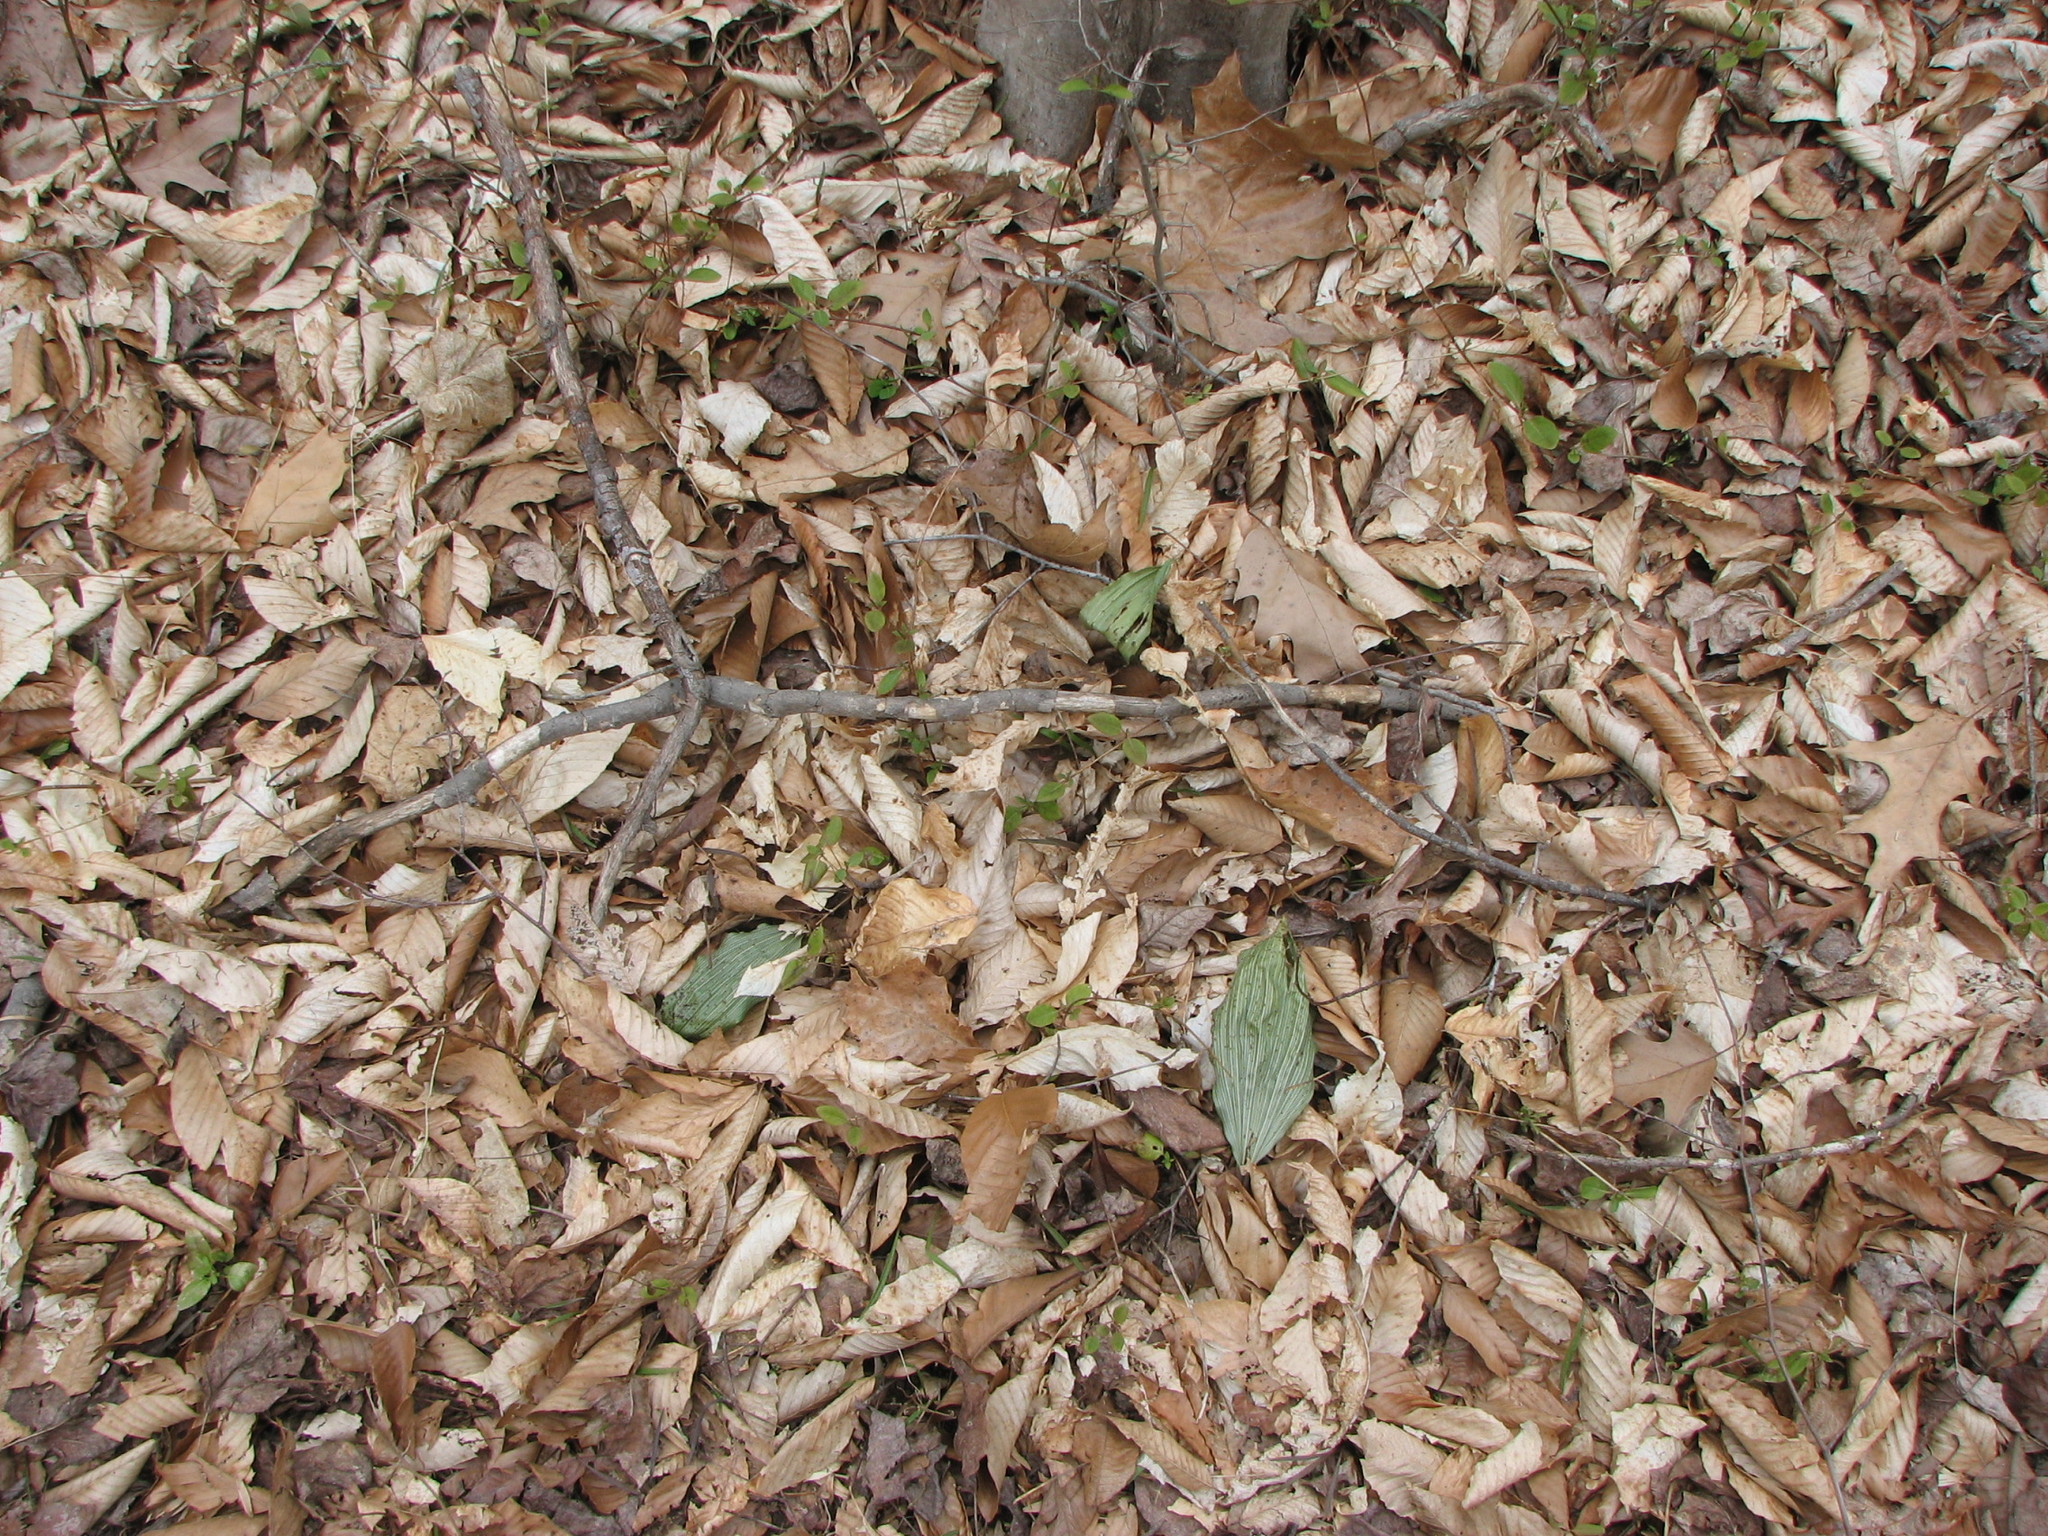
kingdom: Plantae
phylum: Tracheophyta
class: Liliopsida
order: Asparagales
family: Orchidaceae
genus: Aplectrum
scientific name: Aplectrum hyemale
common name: Adam-and-eve
